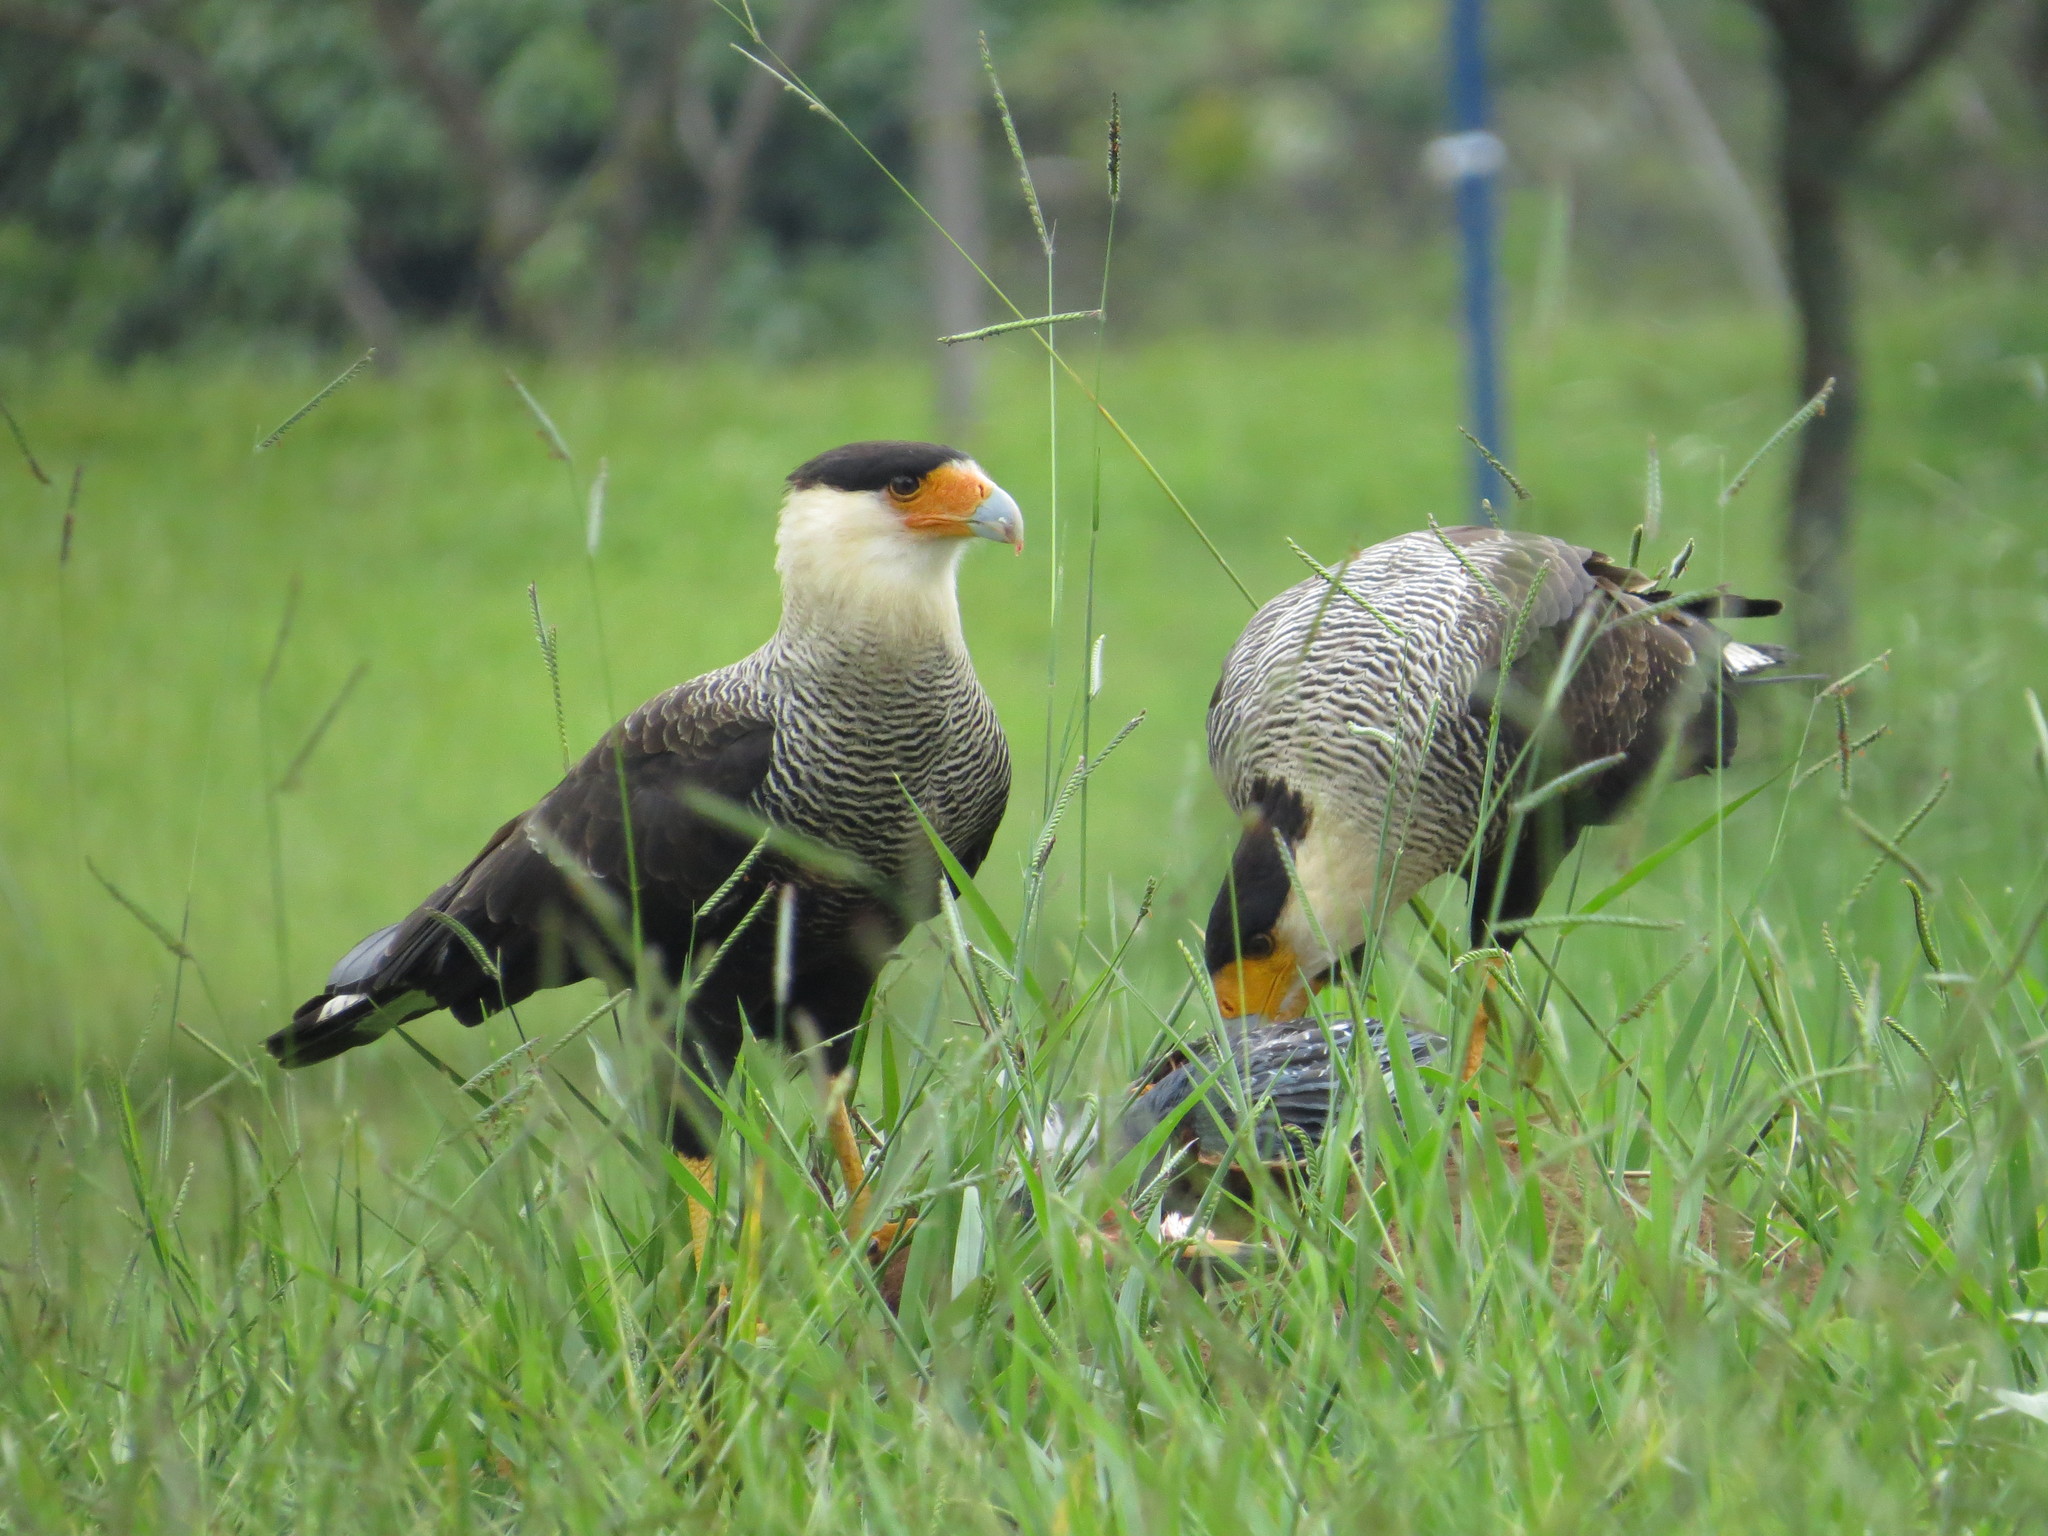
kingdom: Animalia
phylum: Chordata
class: Aves
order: Falconiformes
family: Falconidae
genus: Caracara
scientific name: Caracara plancus
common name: Southern caracara
